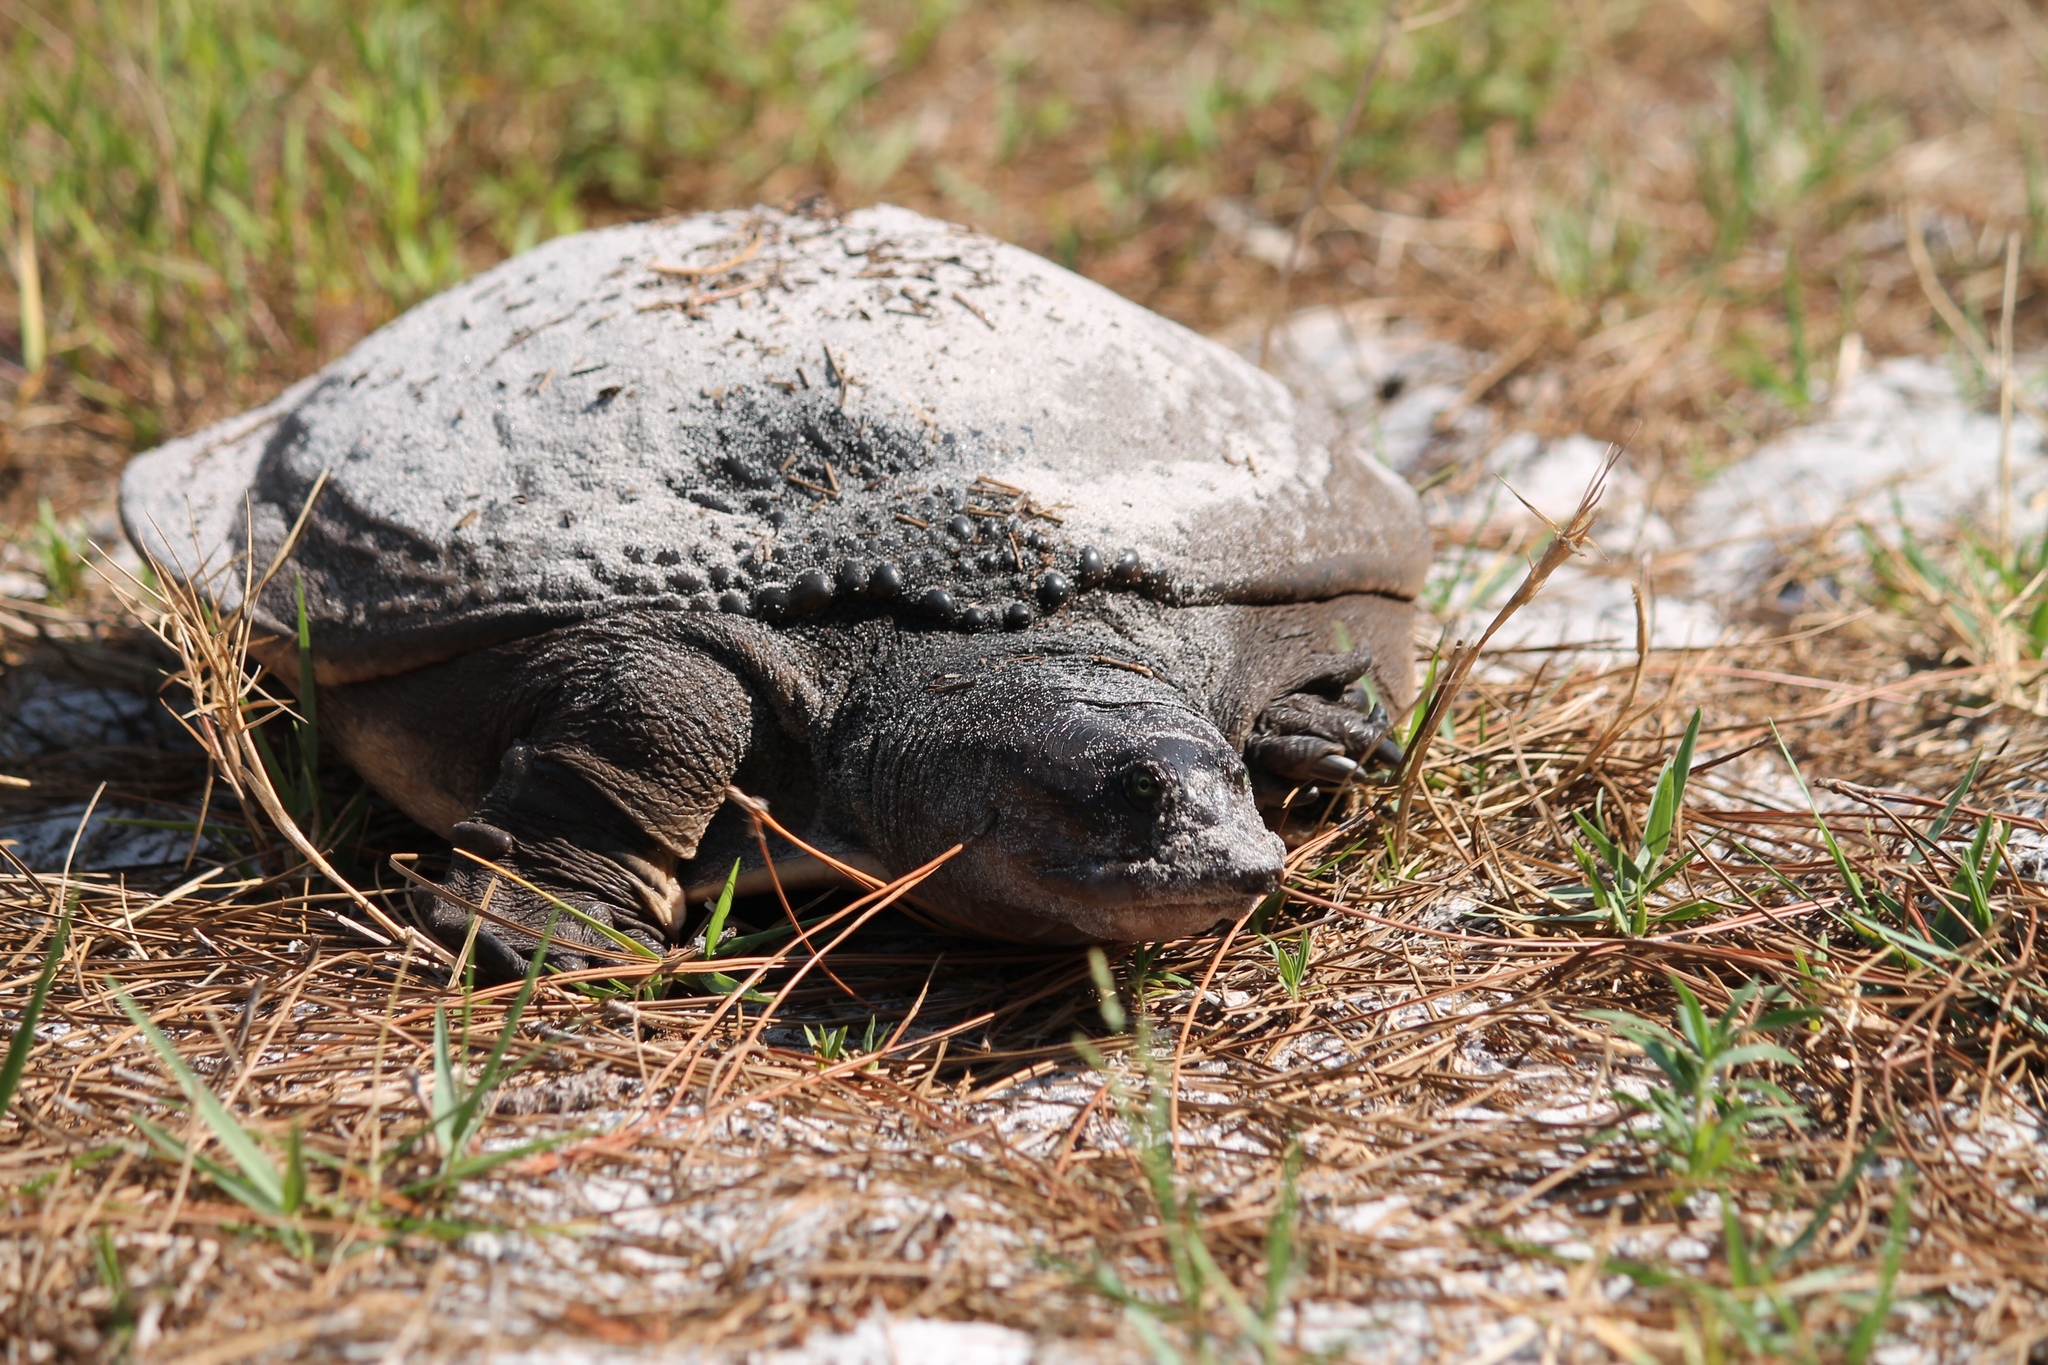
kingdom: Animalia
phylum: Chordata
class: Testudines
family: Trionychidae
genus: Apalone
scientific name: Apalone ferox
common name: Florida softshell turtle
